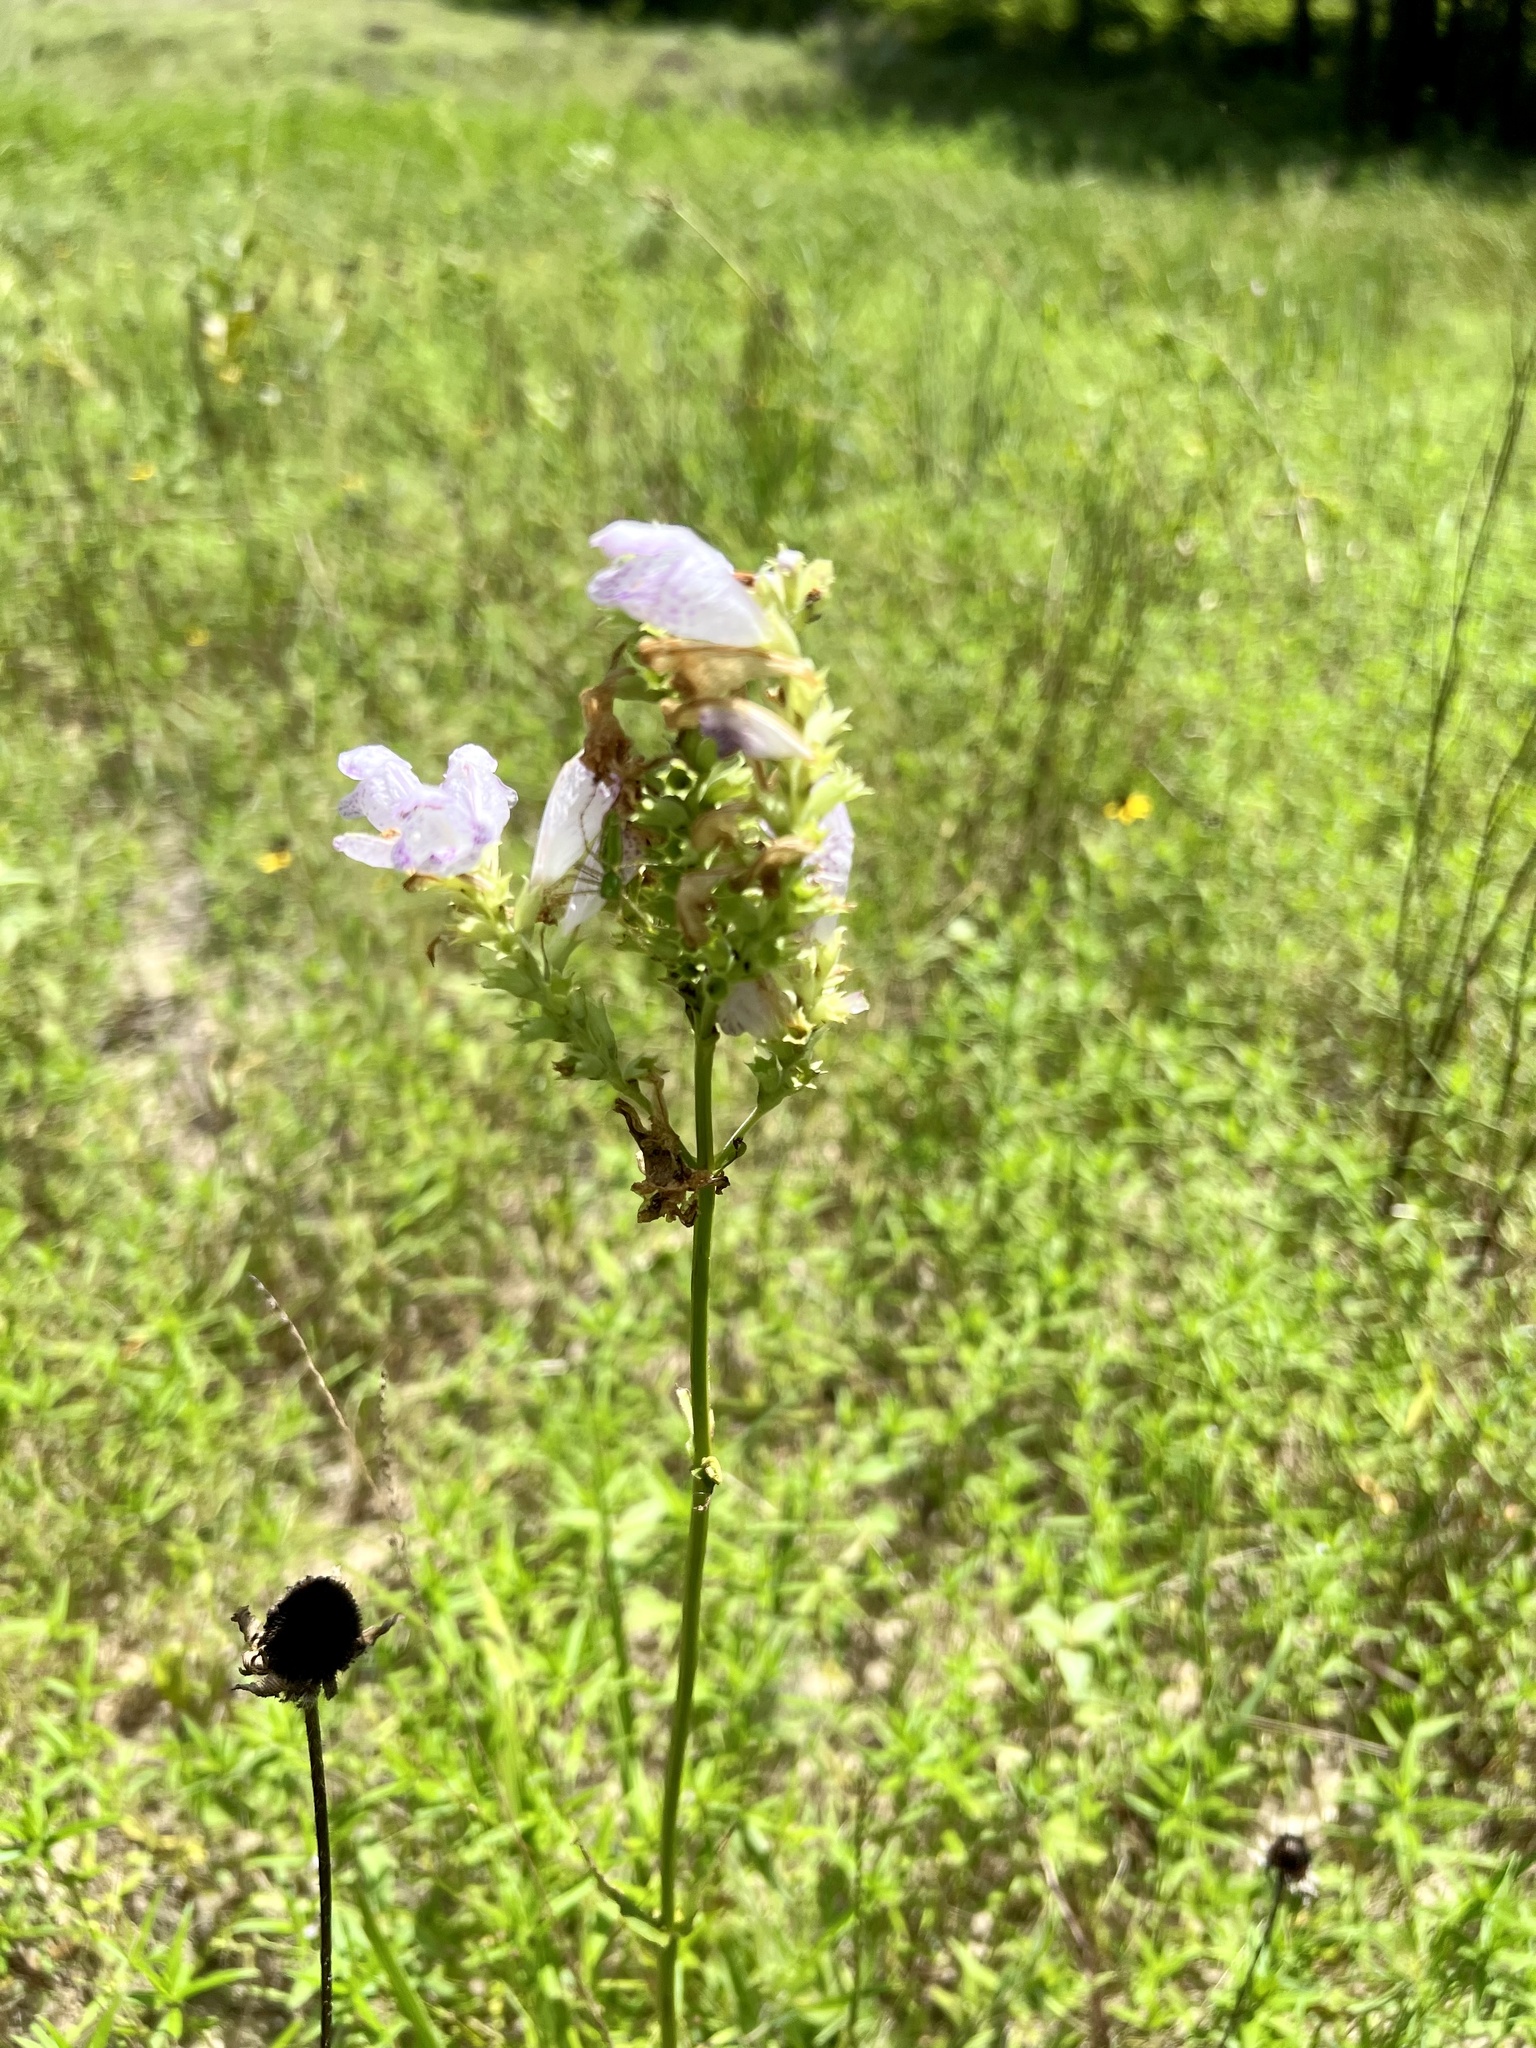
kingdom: Plantae
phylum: Tracheophyta
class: Magnoliopsida
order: Lamiales
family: Lamiaceae
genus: Physostegia
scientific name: Physostegia digitalis
